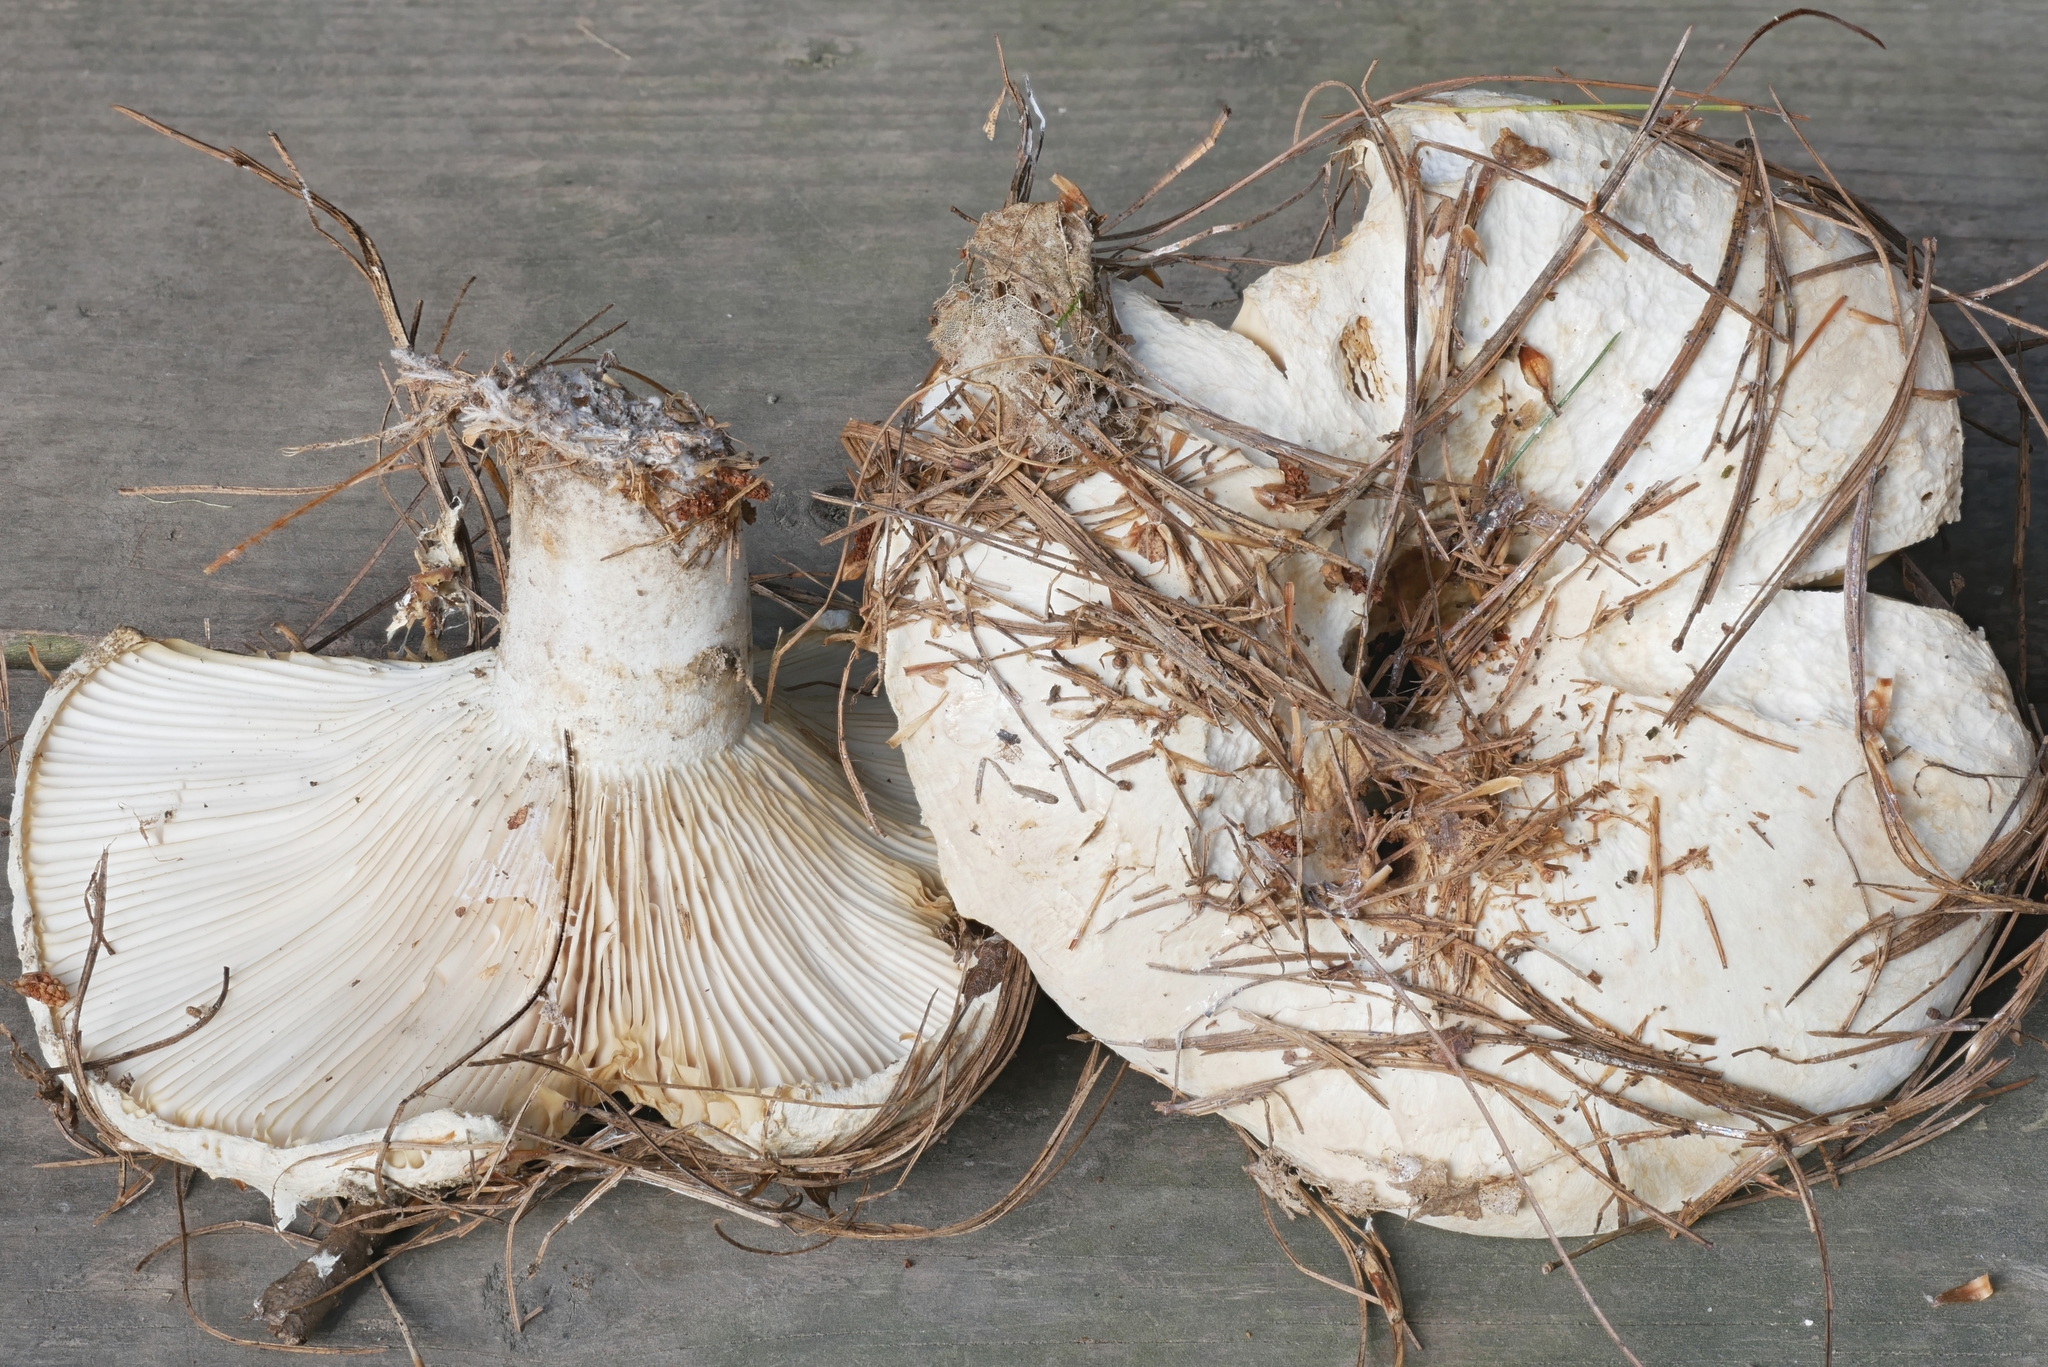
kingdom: Fungi
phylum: Basidiomycota
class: Agaricomycetes
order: Russulales
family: Russulaceae
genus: Russula
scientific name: Russula brevipes
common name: Short-stemmed russula
